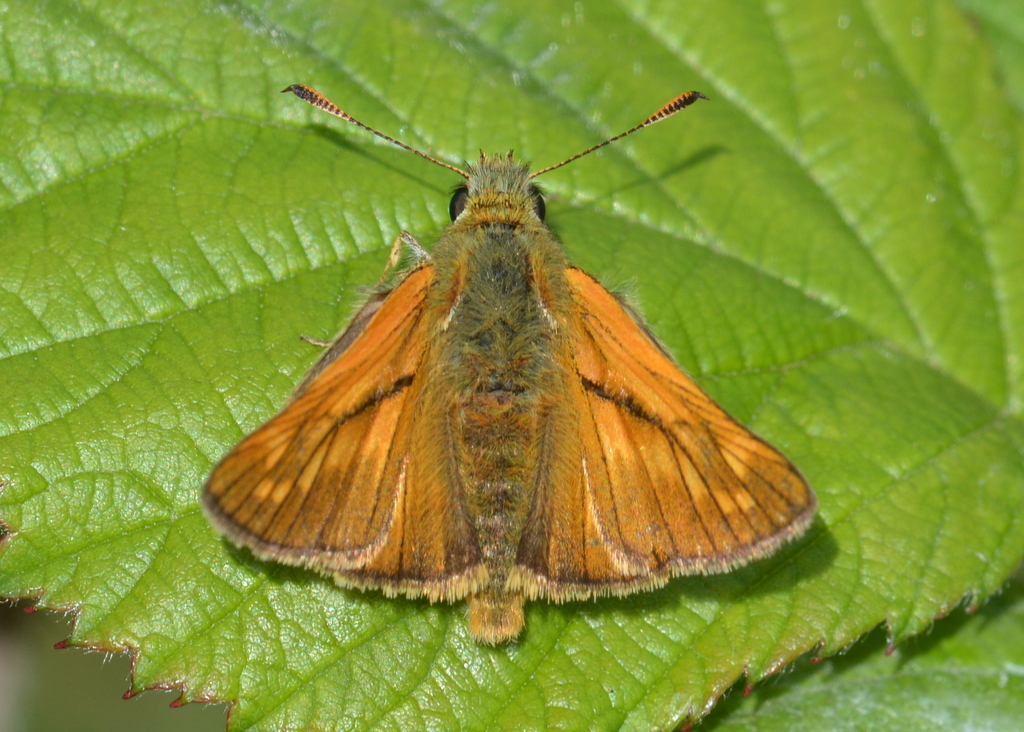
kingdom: Animalia
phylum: Arthropoda
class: Insecta
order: Lepidoptera
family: Hesperiidae
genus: Ochlodes
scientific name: Ochlodes venata
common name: Large skipper
